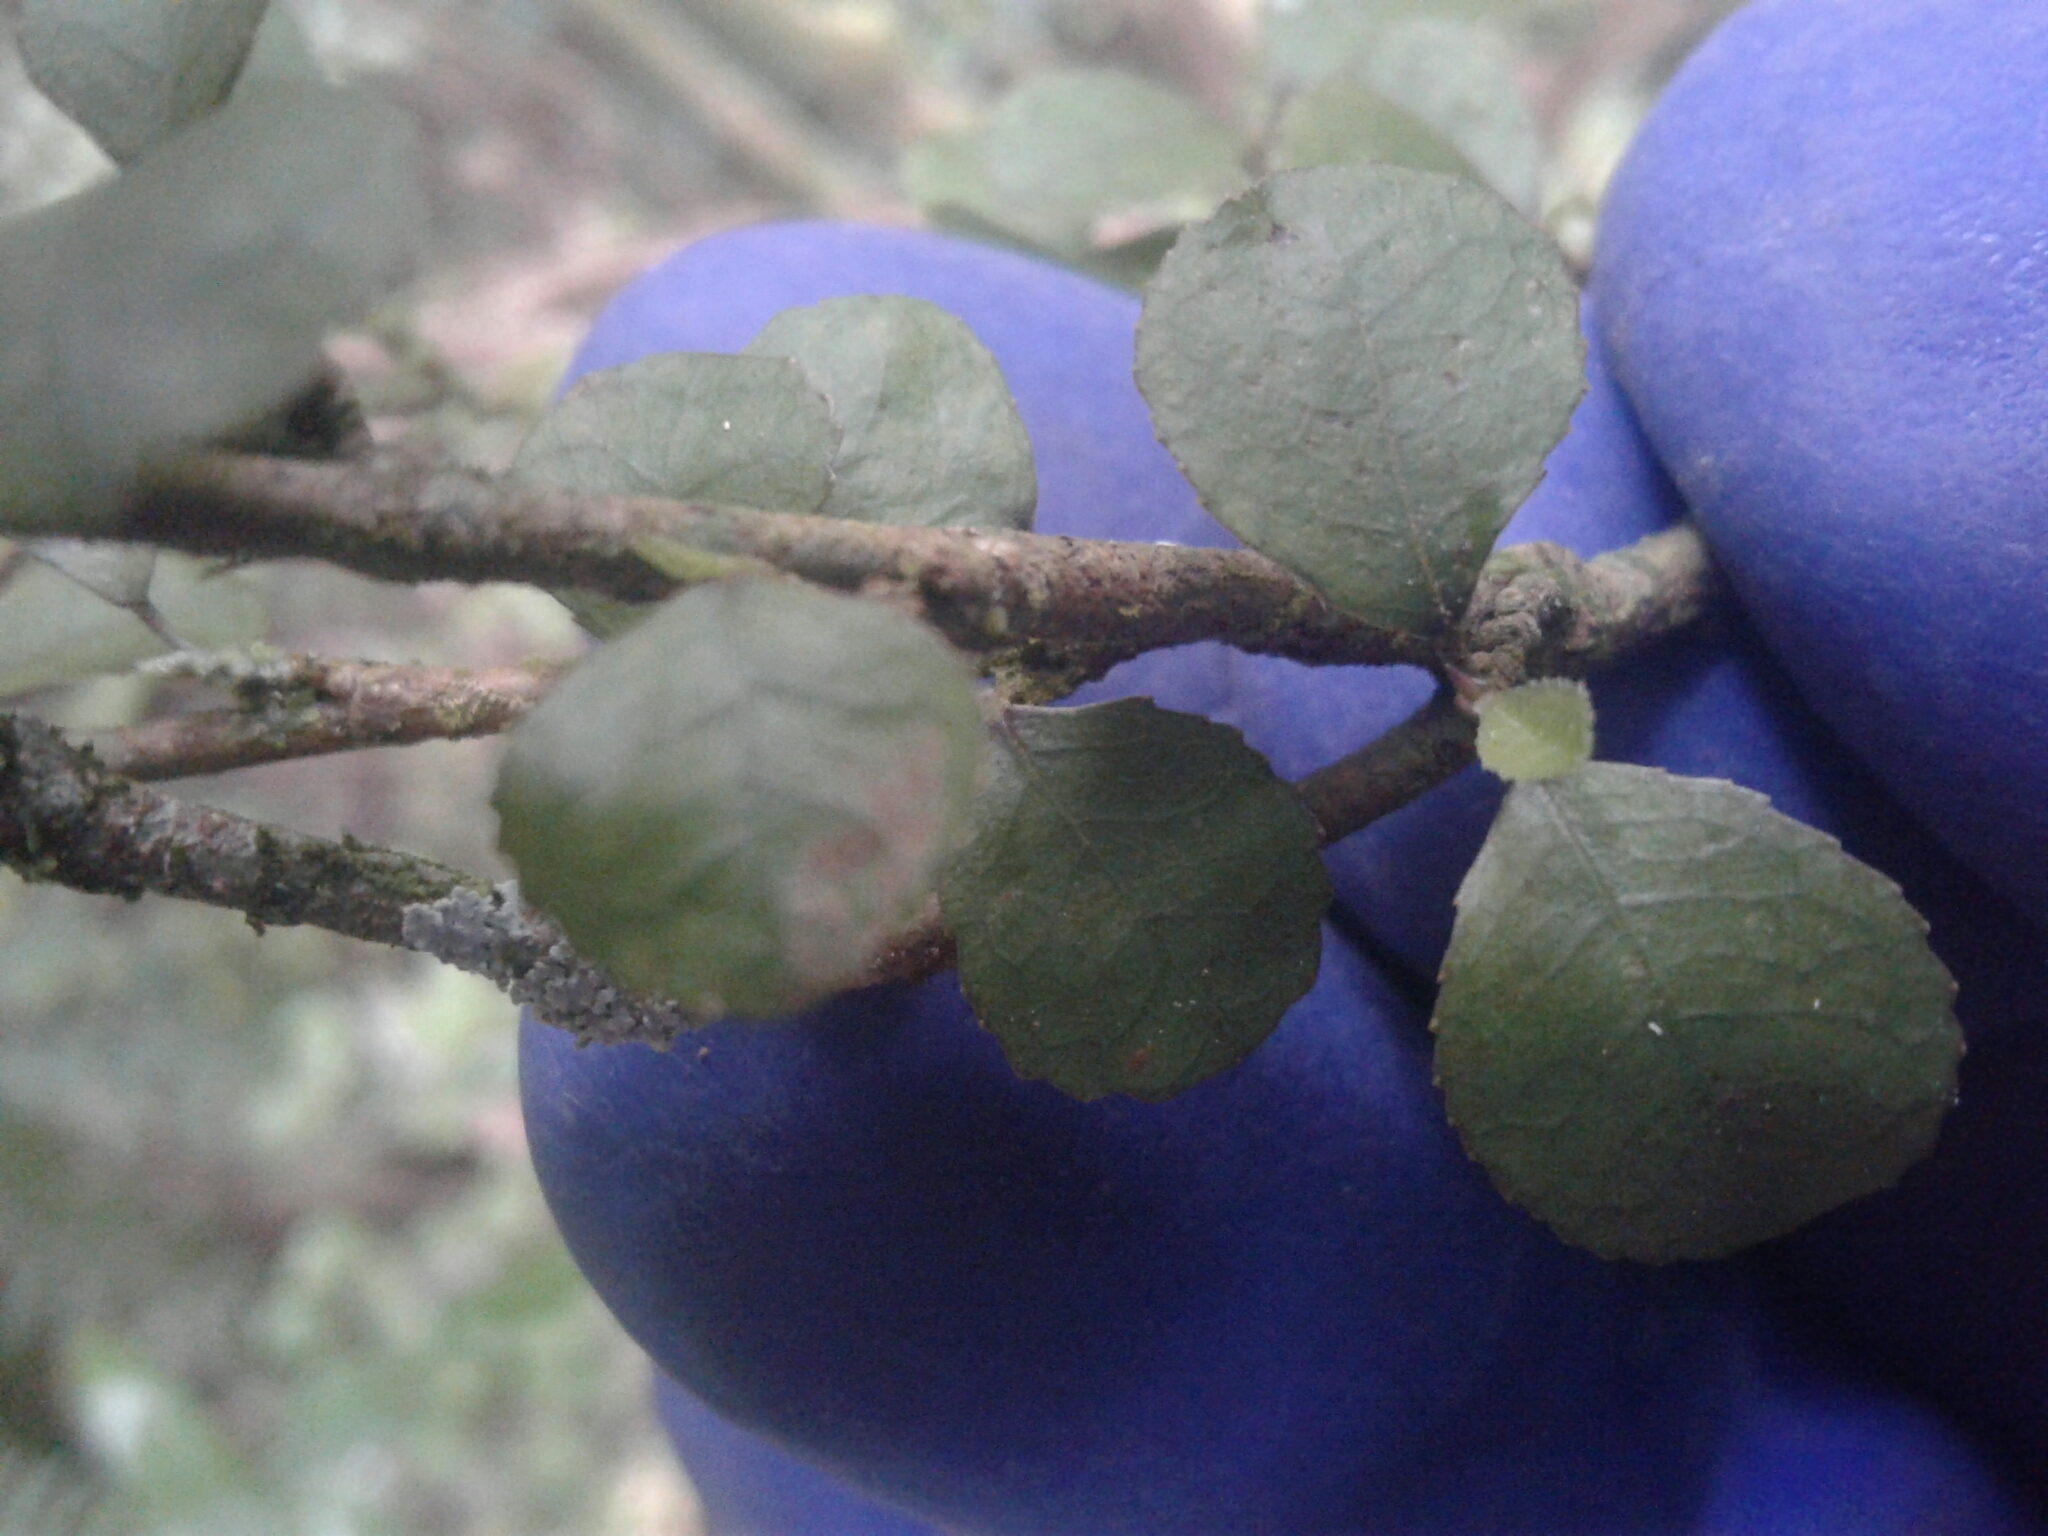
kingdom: Plantae
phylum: Tracheophyta
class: Magnoliopsida
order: Rosales
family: Moraceae
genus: Paratrophis
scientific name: Paratrophis microphylla
